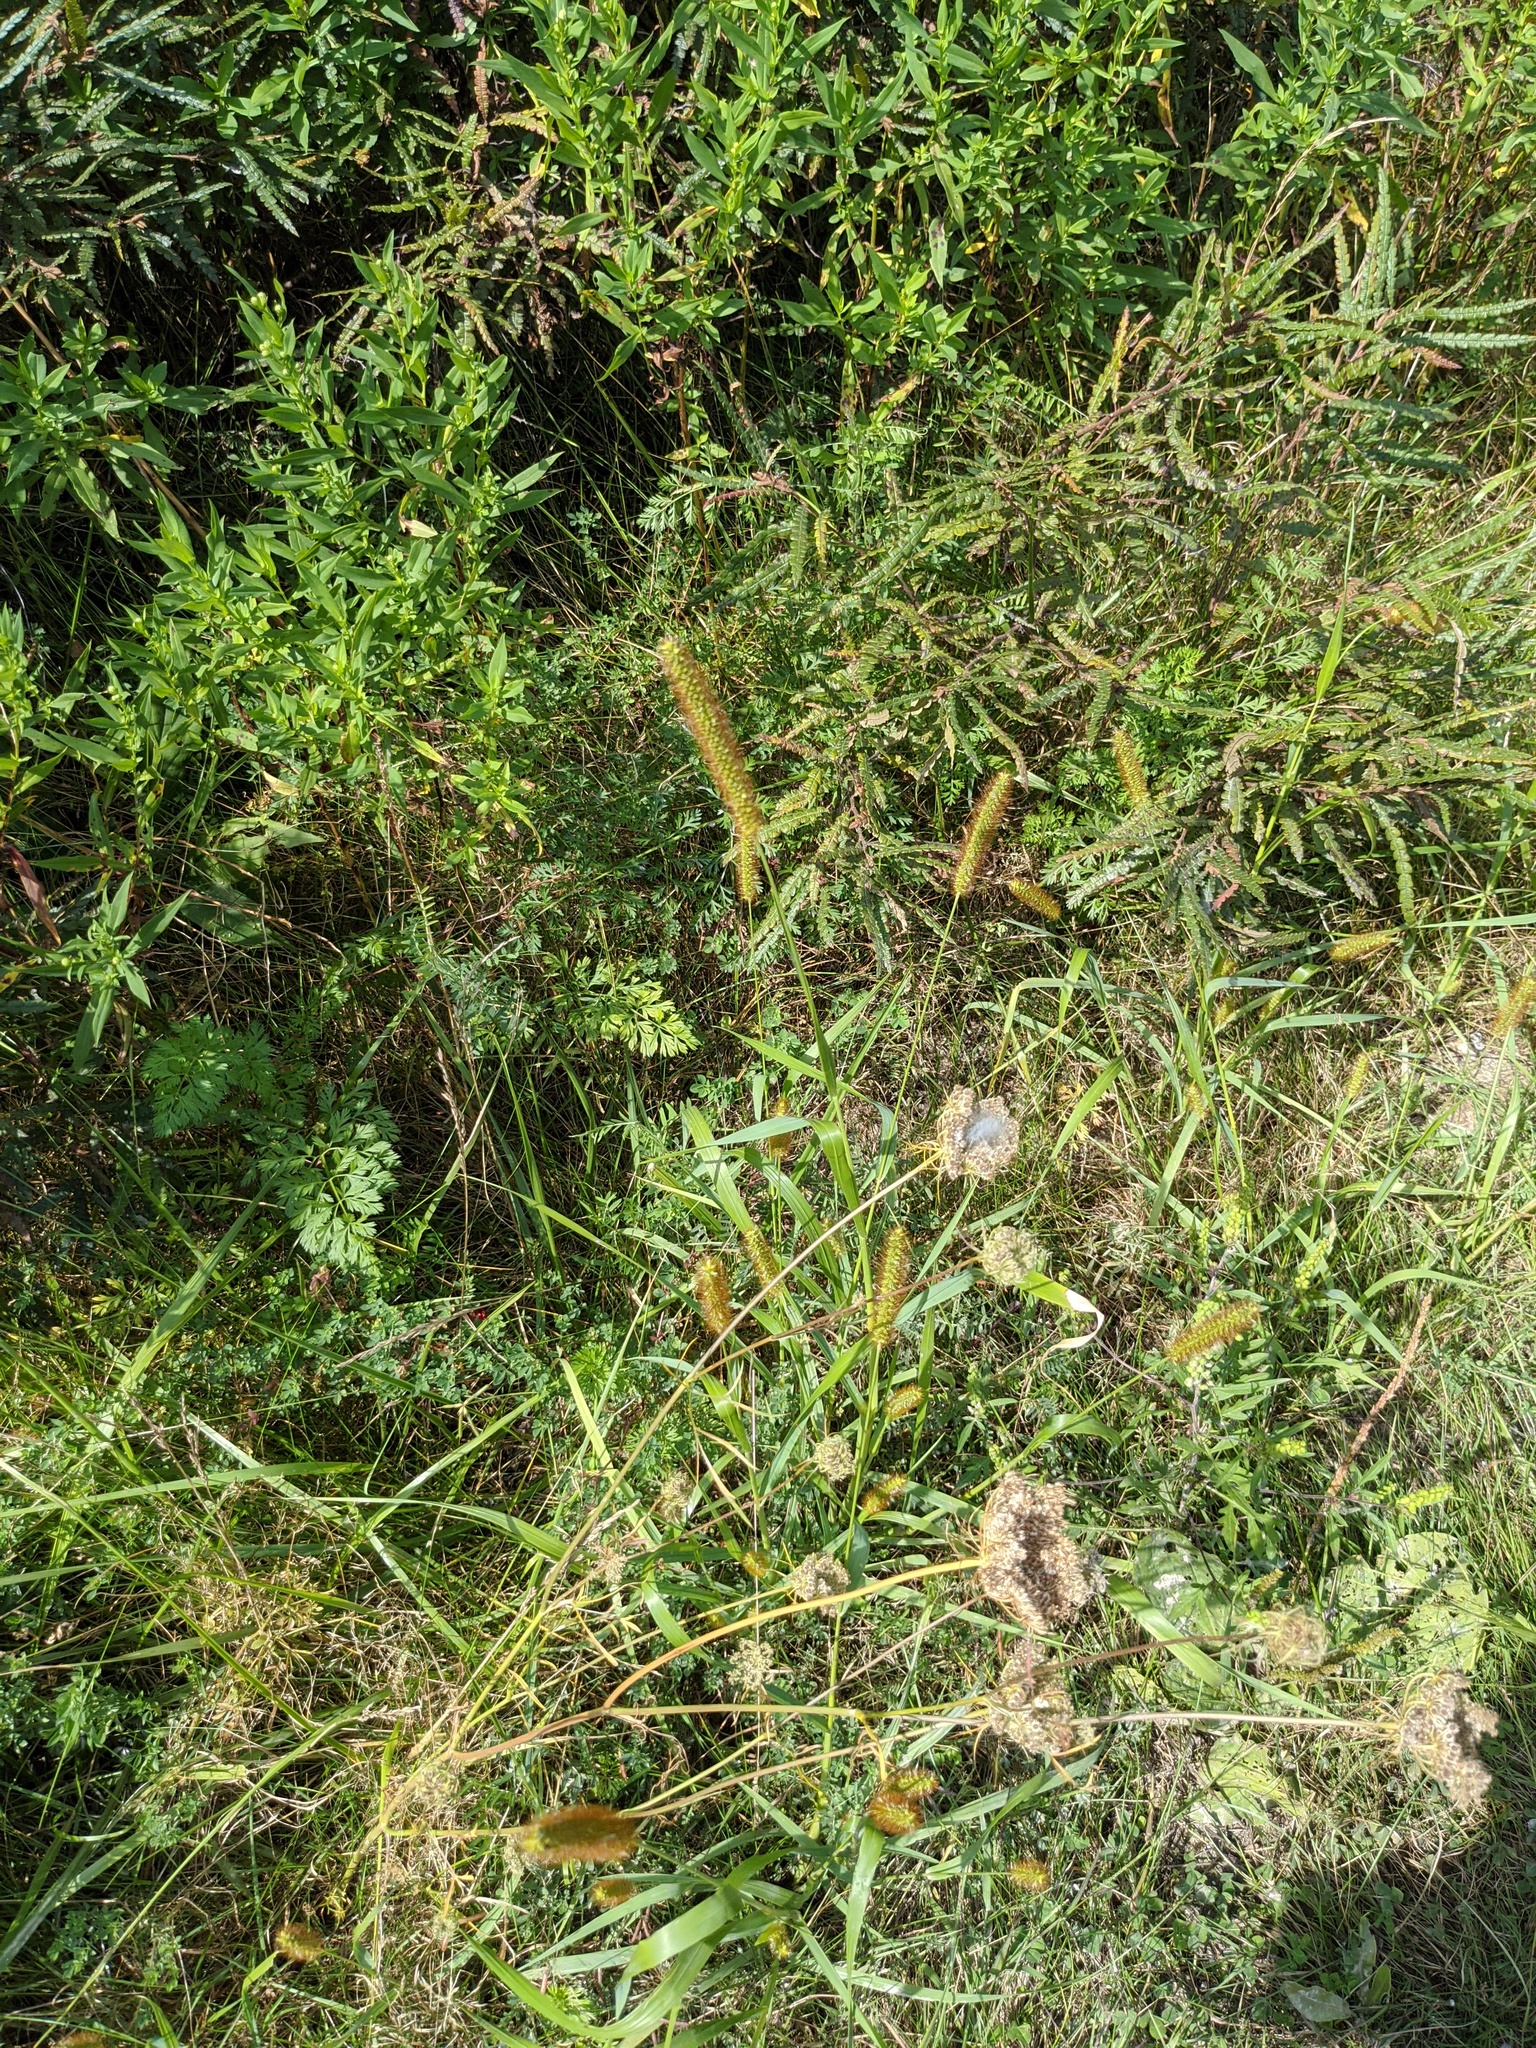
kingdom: Plantae
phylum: Tracheophyta
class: Liliopsida
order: Poales
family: Poaceae
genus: Setaria
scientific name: Setaria pumila
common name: Yellow bristle-grass
